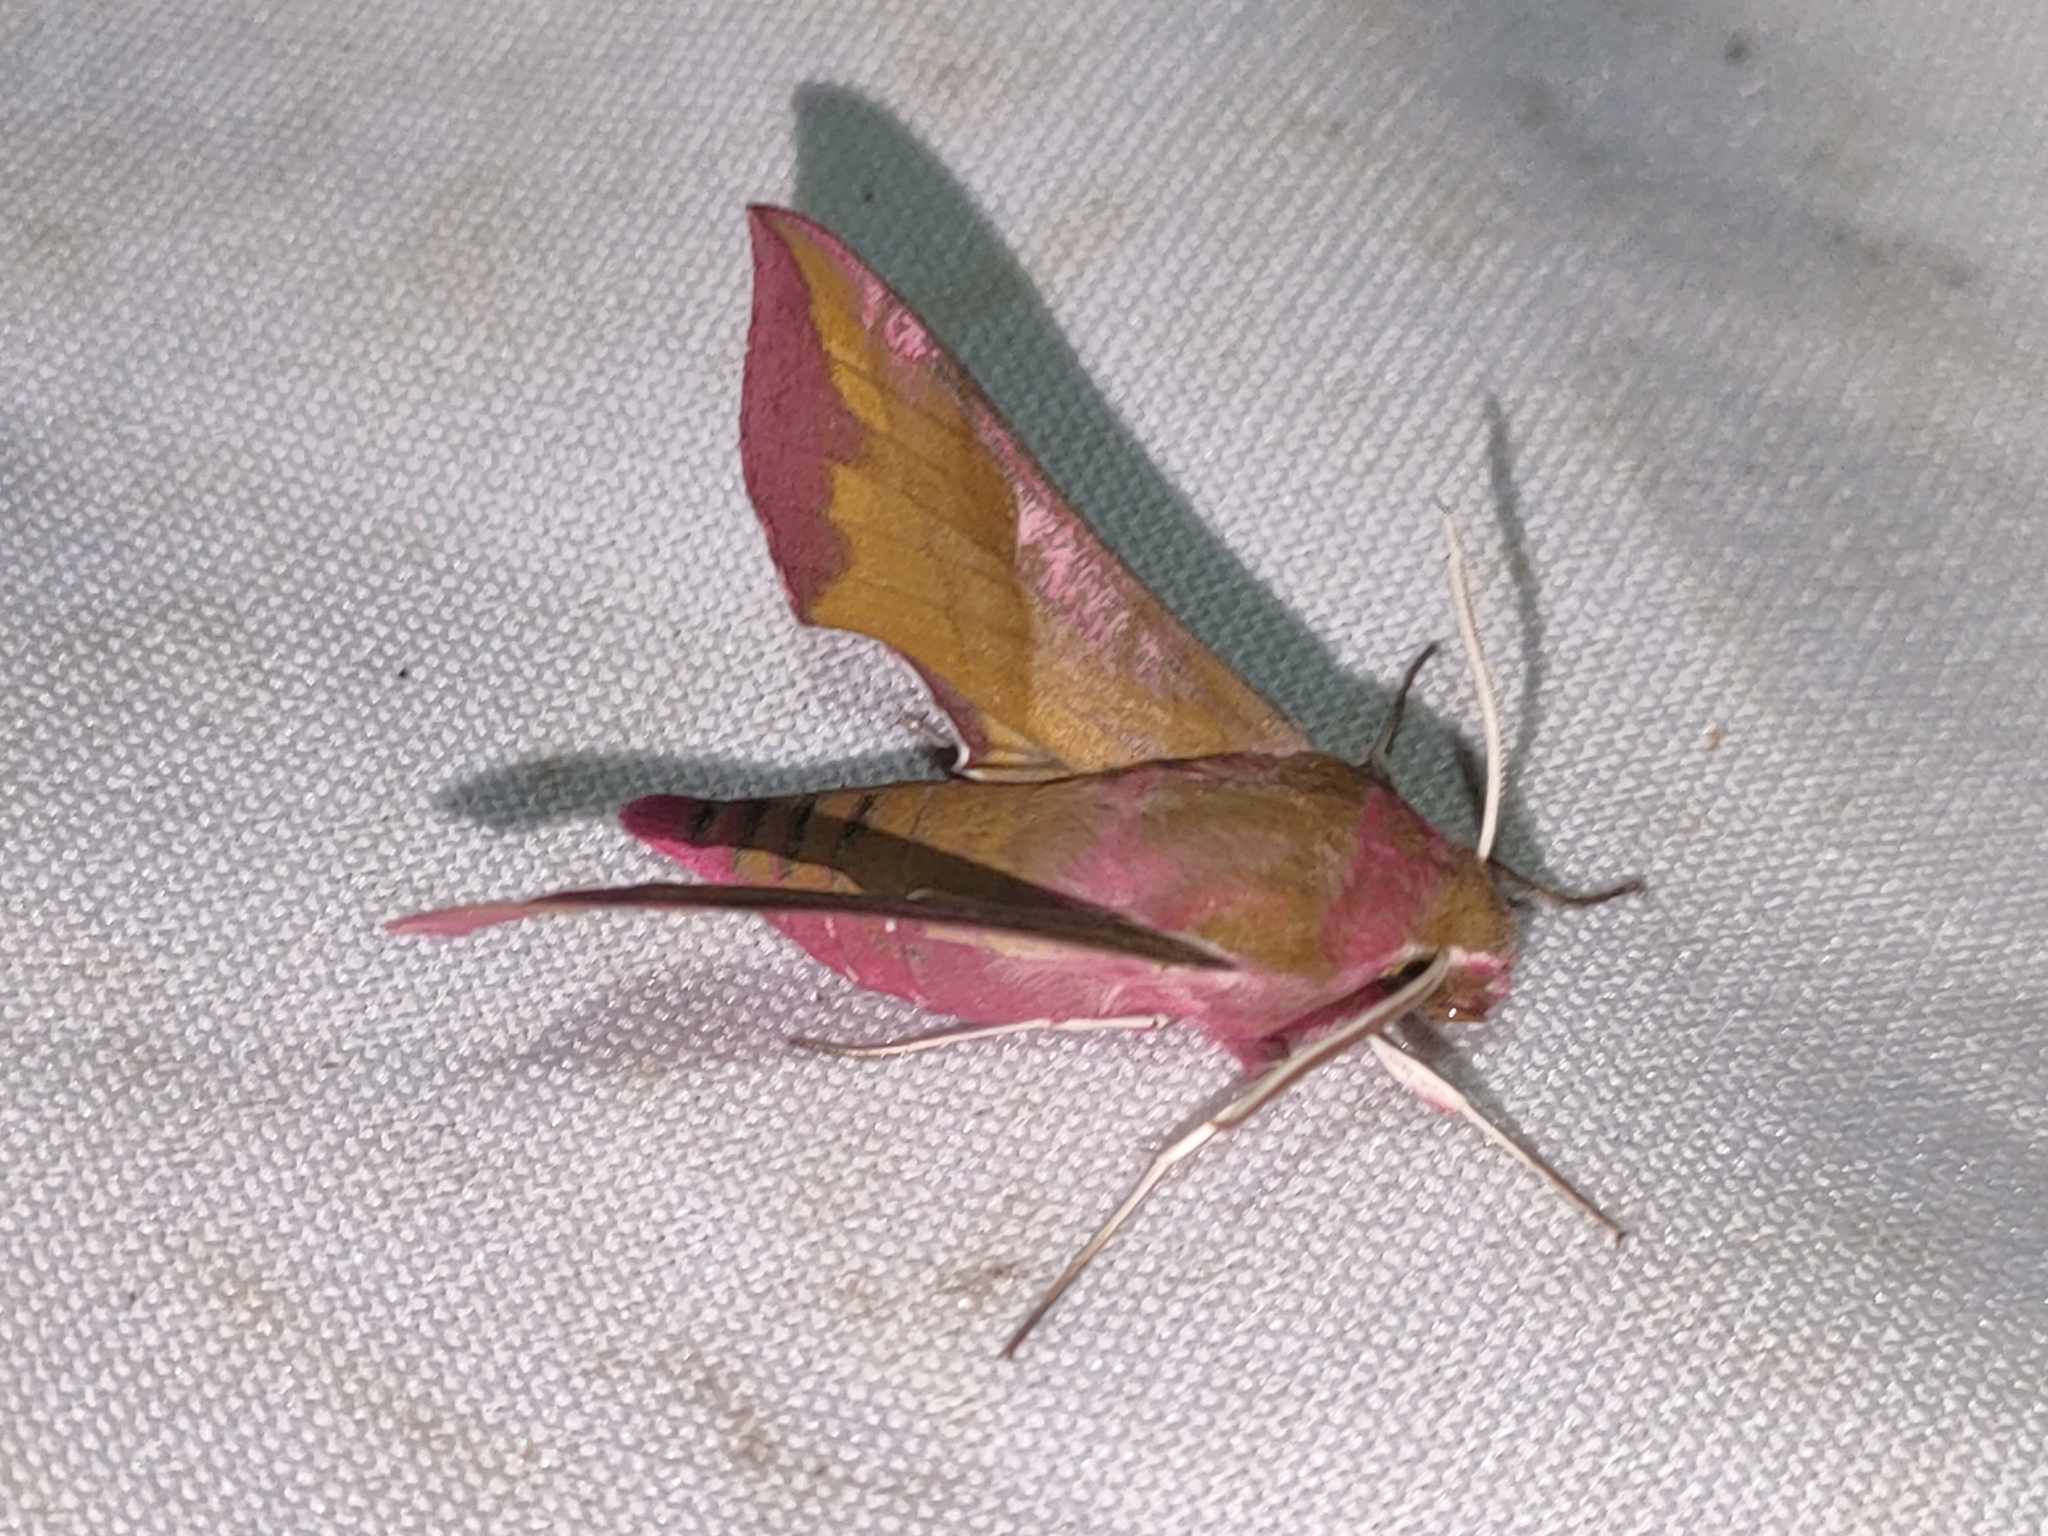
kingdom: Animalia
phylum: Arthropoda
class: Insecta
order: Lepidoptera
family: Sphingidae
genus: Deilephila
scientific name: Deilephila porcellus
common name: Small elephant hawk-moth
